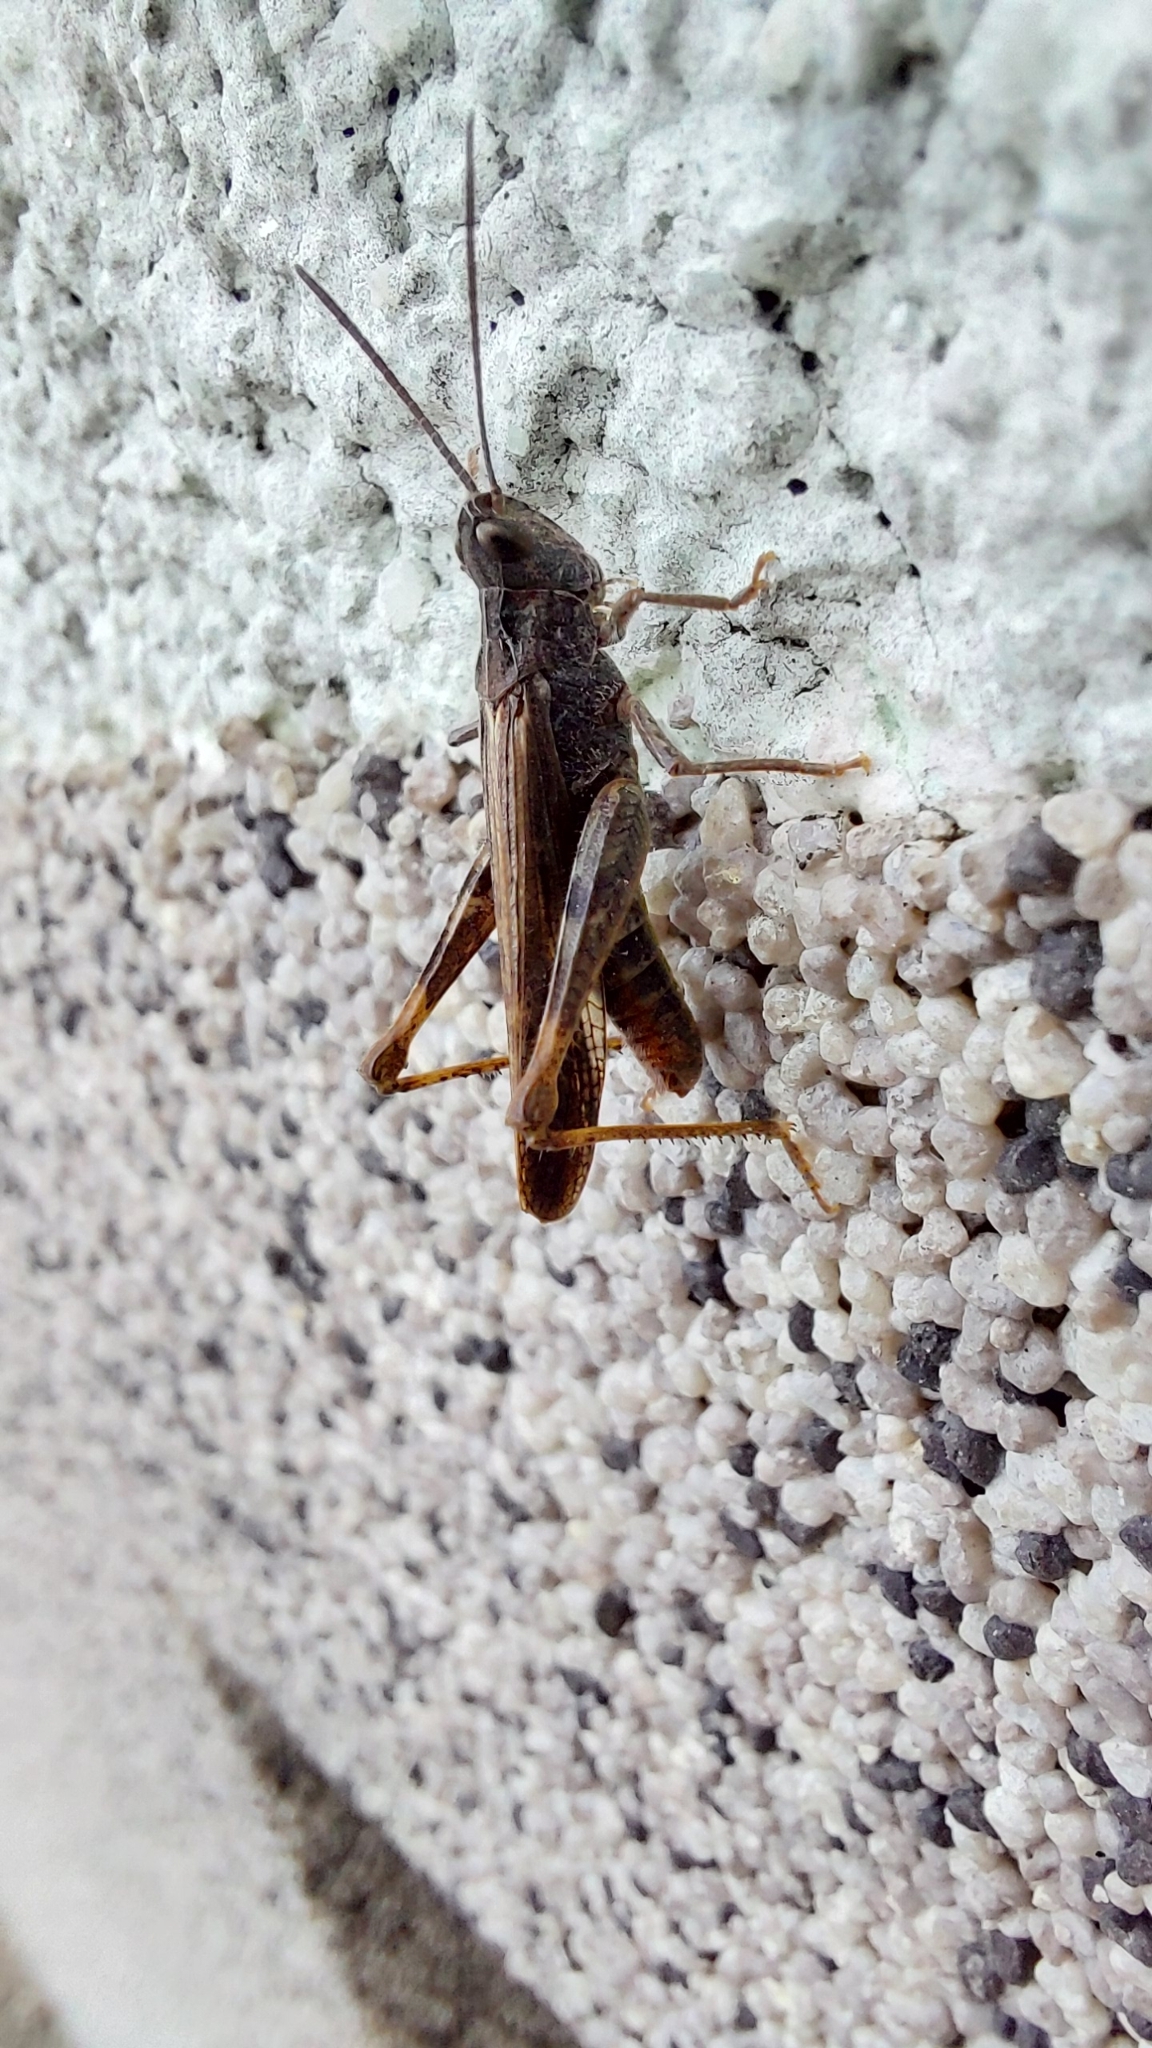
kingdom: Animalia
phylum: Arthropoda
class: Insecta
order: Orthoptera
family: Acrididae
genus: Chorthippus
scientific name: Chorthippus brunneus
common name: Field grasshopper
